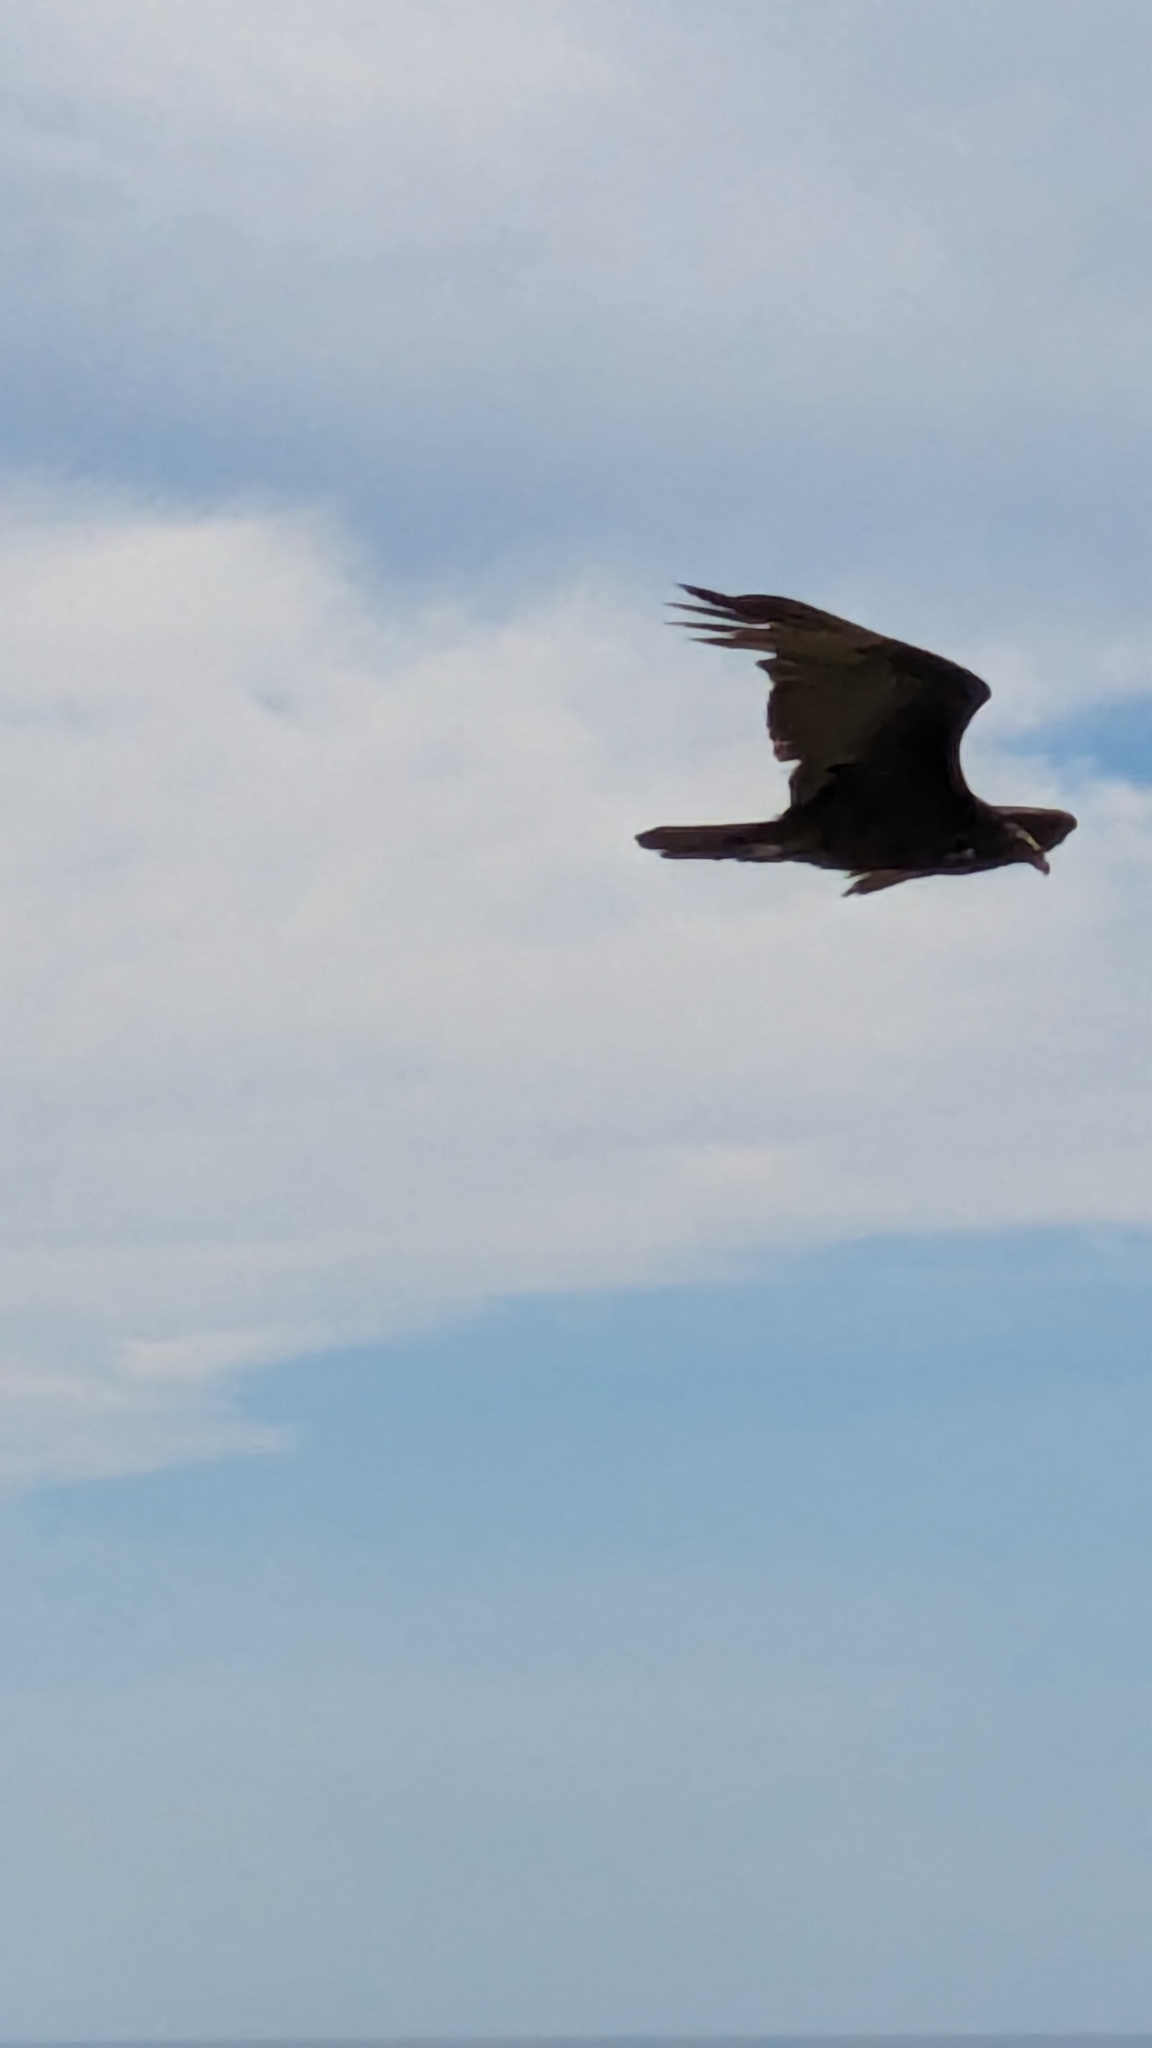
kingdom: Animalia
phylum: Chordata
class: Aves
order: Accipitriformes
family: Cathartidae
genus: Cathartes
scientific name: Cathartes aura
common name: Turkey vulture
